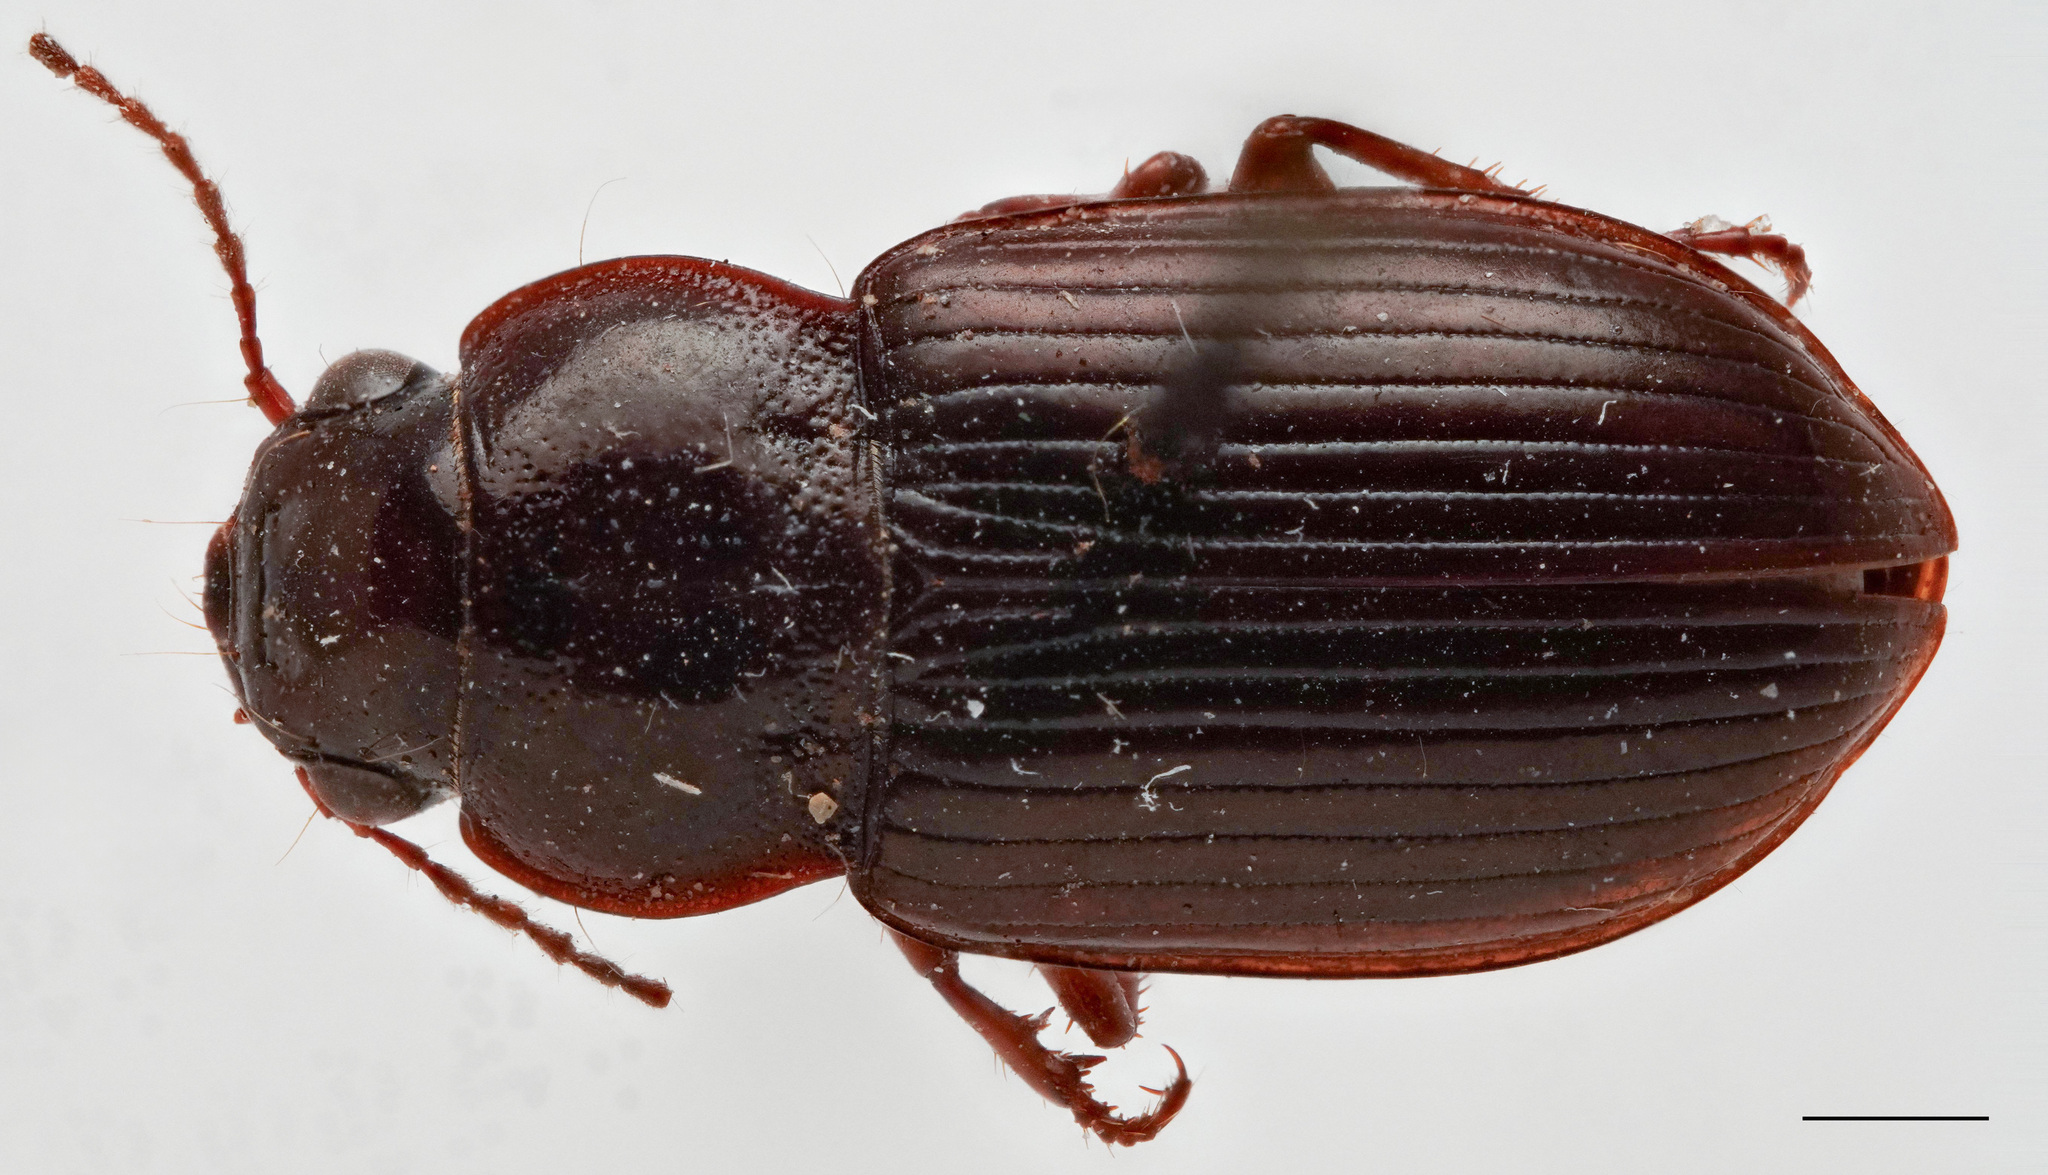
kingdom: Animalia
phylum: Arthropoda
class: Insecta
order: Coleoptera
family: Carabidae
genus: Amara
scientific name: Amara avida
